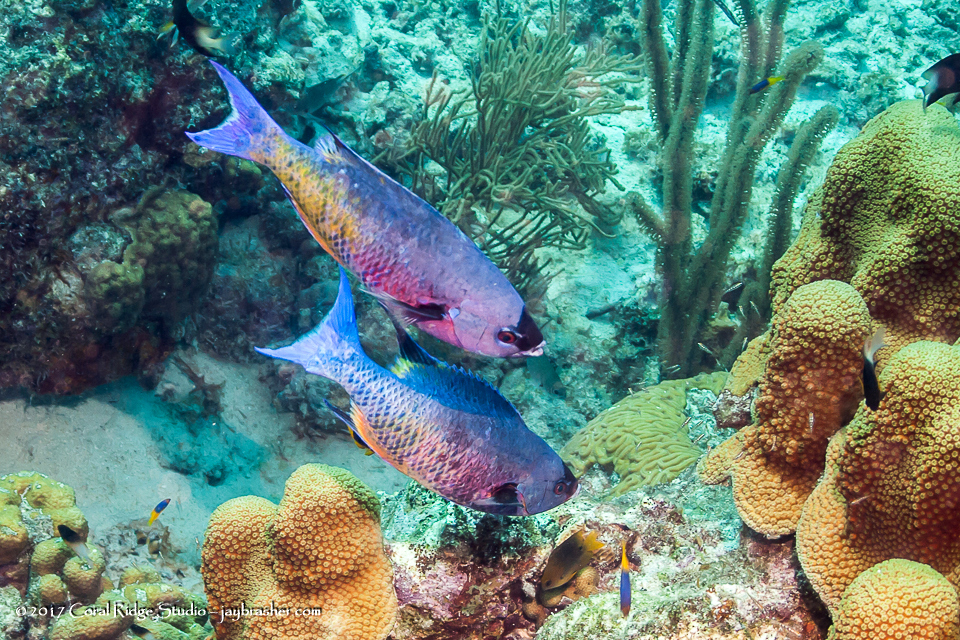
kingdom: Animalia
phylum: Chordata
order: Perciformes
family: Labridae
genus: Bodianus
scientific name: Bodianus
